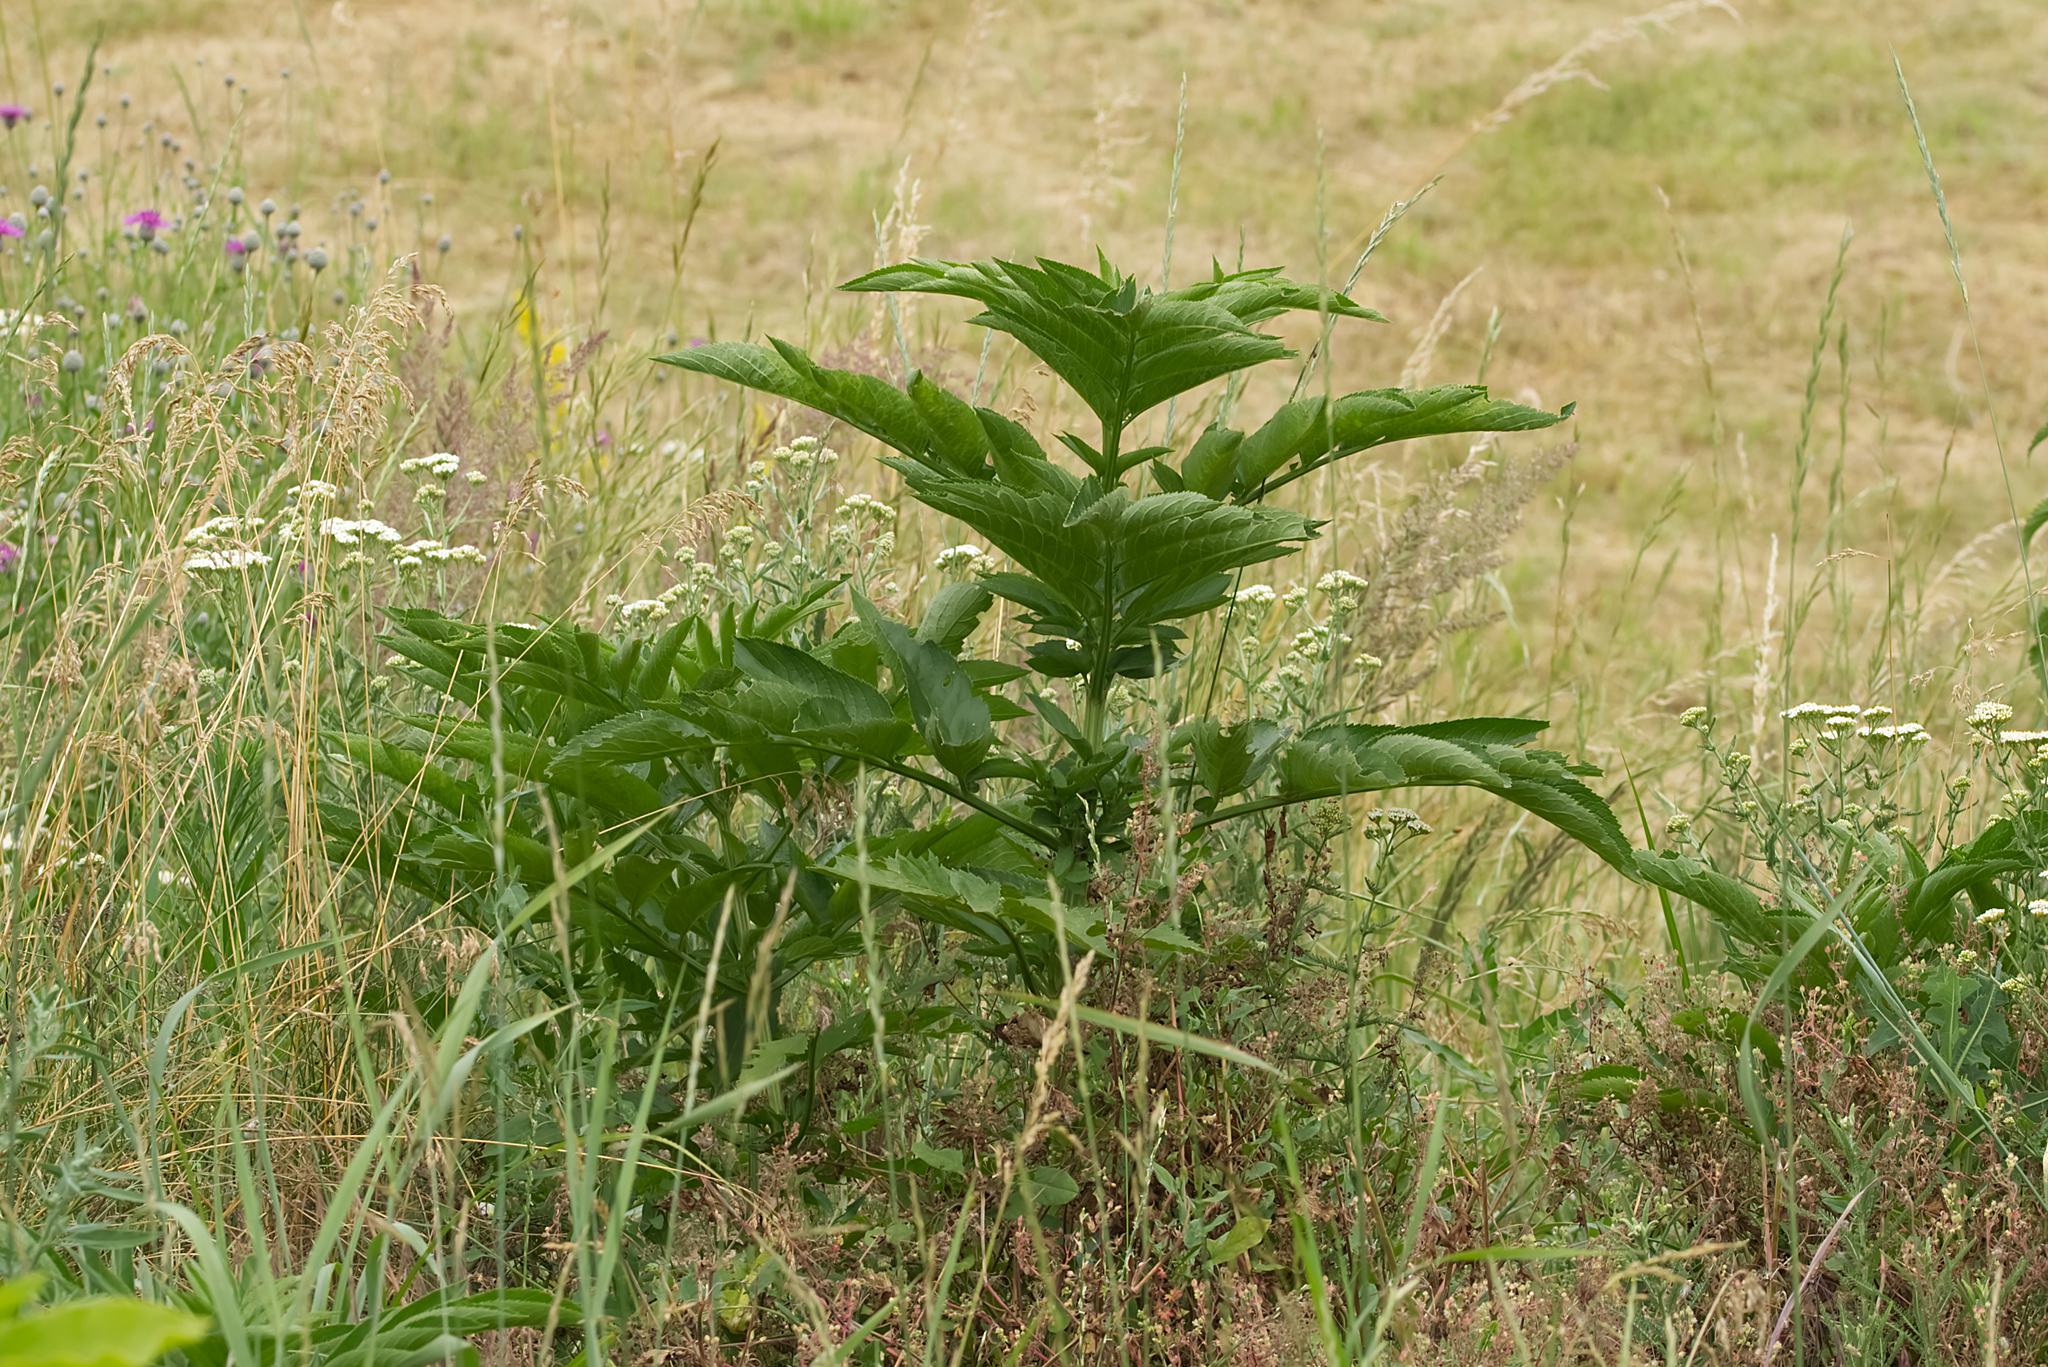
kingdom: Plantae
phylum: Tracheophyta
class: Magnoliopsida
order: Dipsacales
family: Viburnaceae
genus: Sambucus
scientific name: Sambucus ebulus
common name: Dwarf elder
